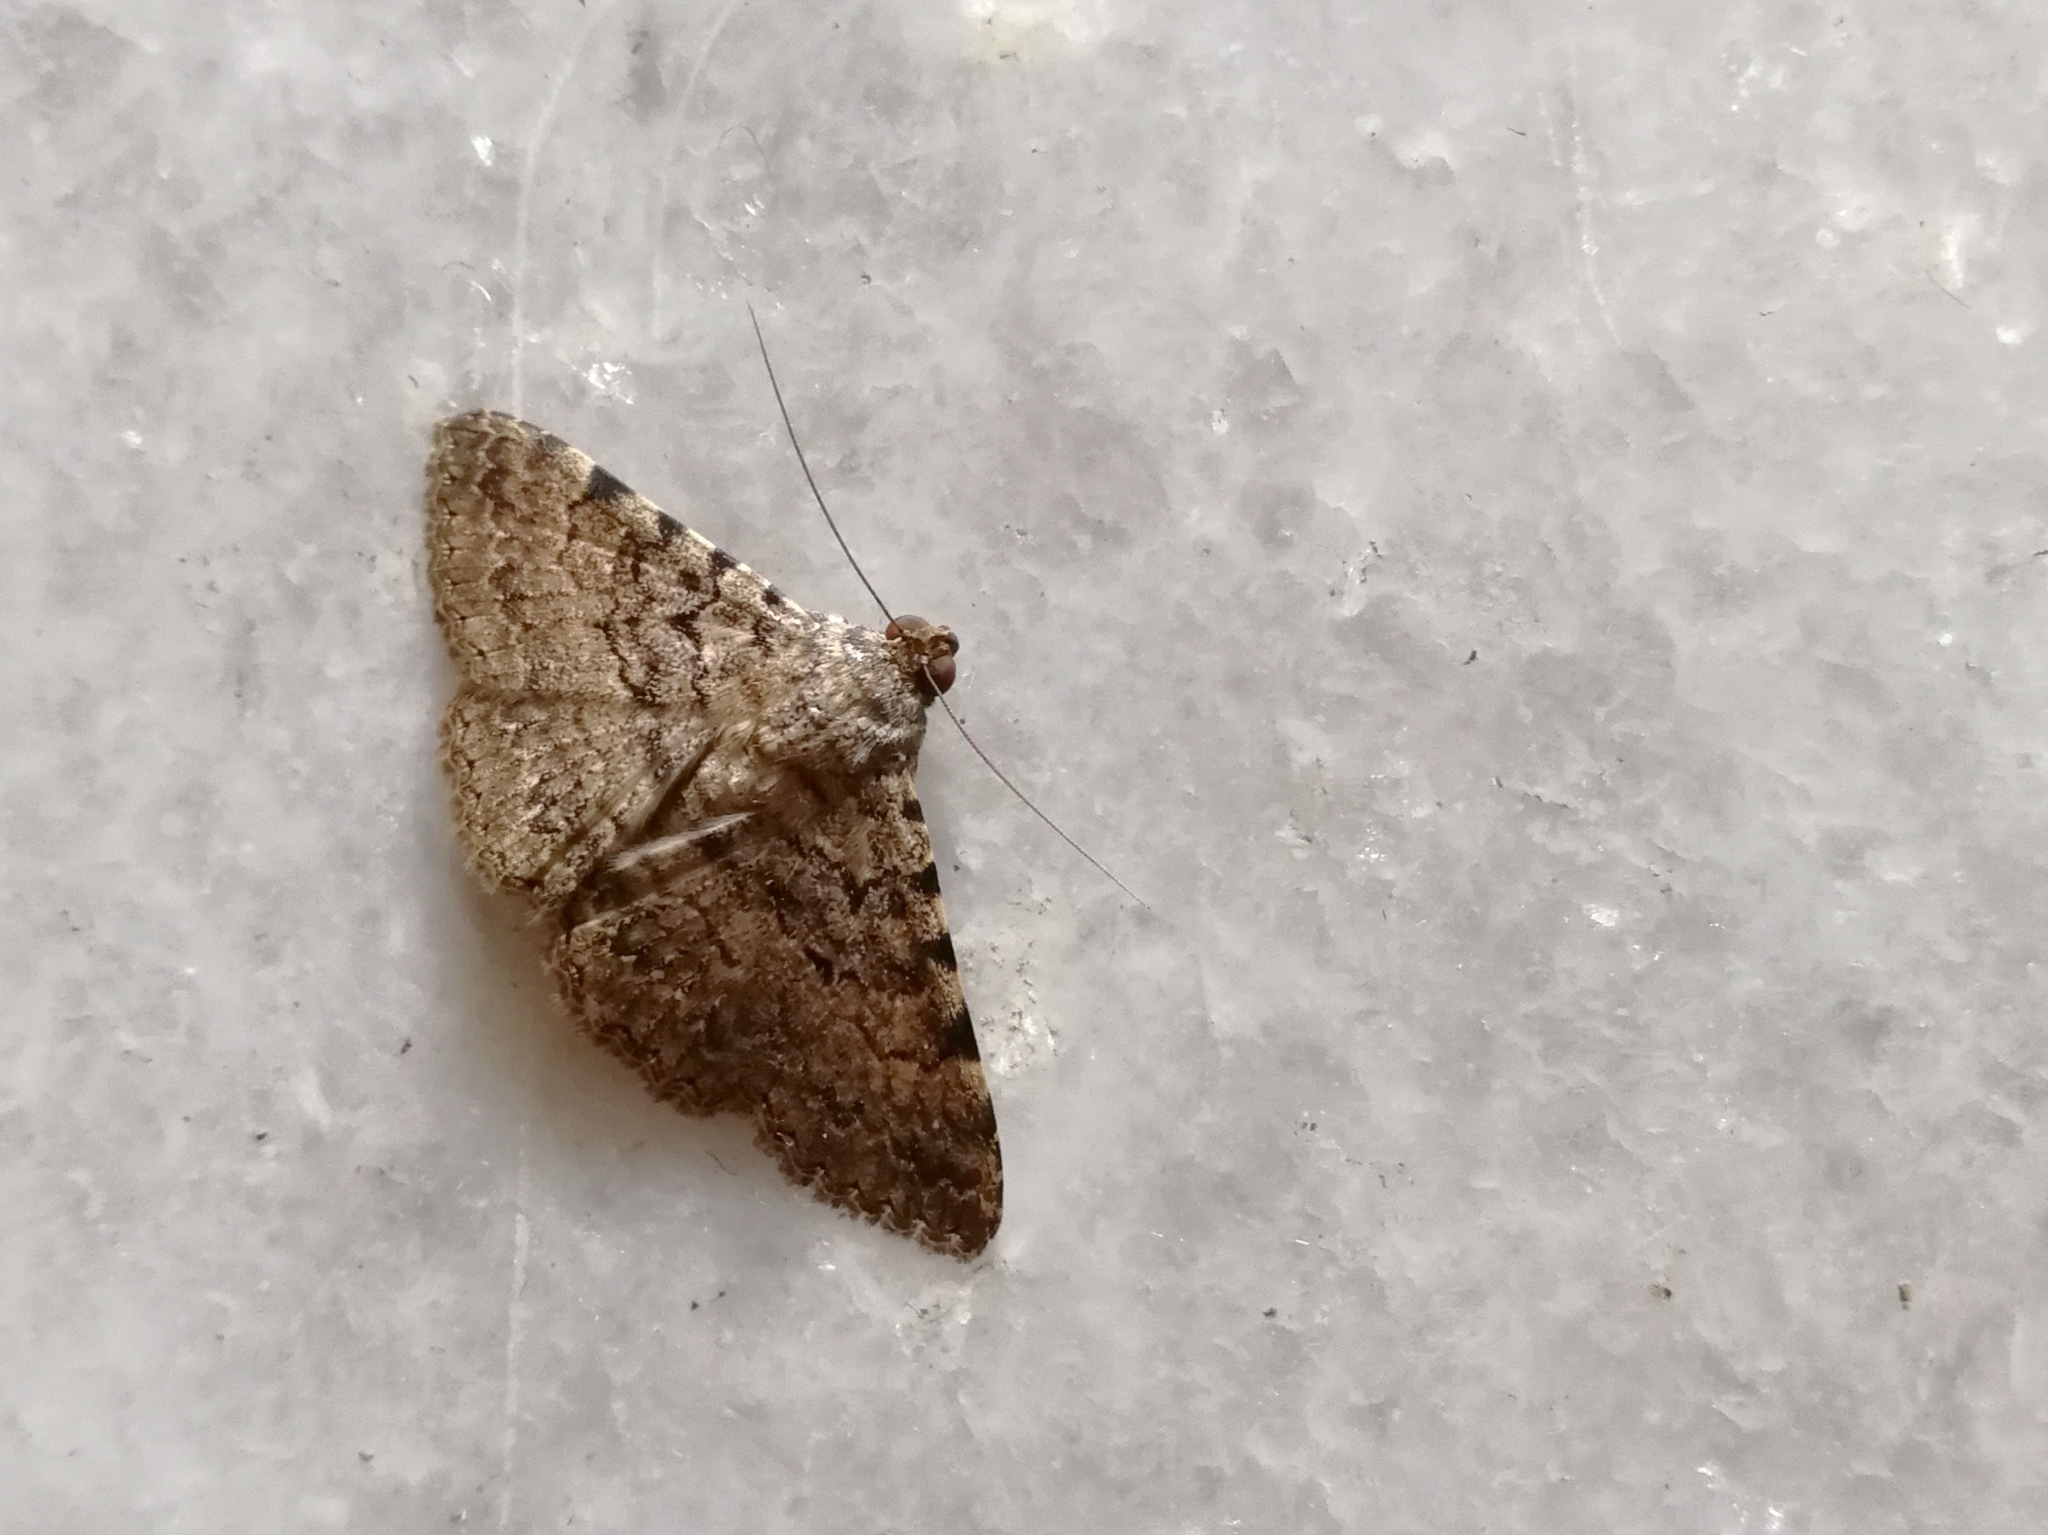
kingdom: Animalia
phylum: Arthropoda
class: Insecta
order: Lepidoptera
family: Erebidae
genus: Polydesma
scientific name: Polydesma boarmoides
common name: Moth
